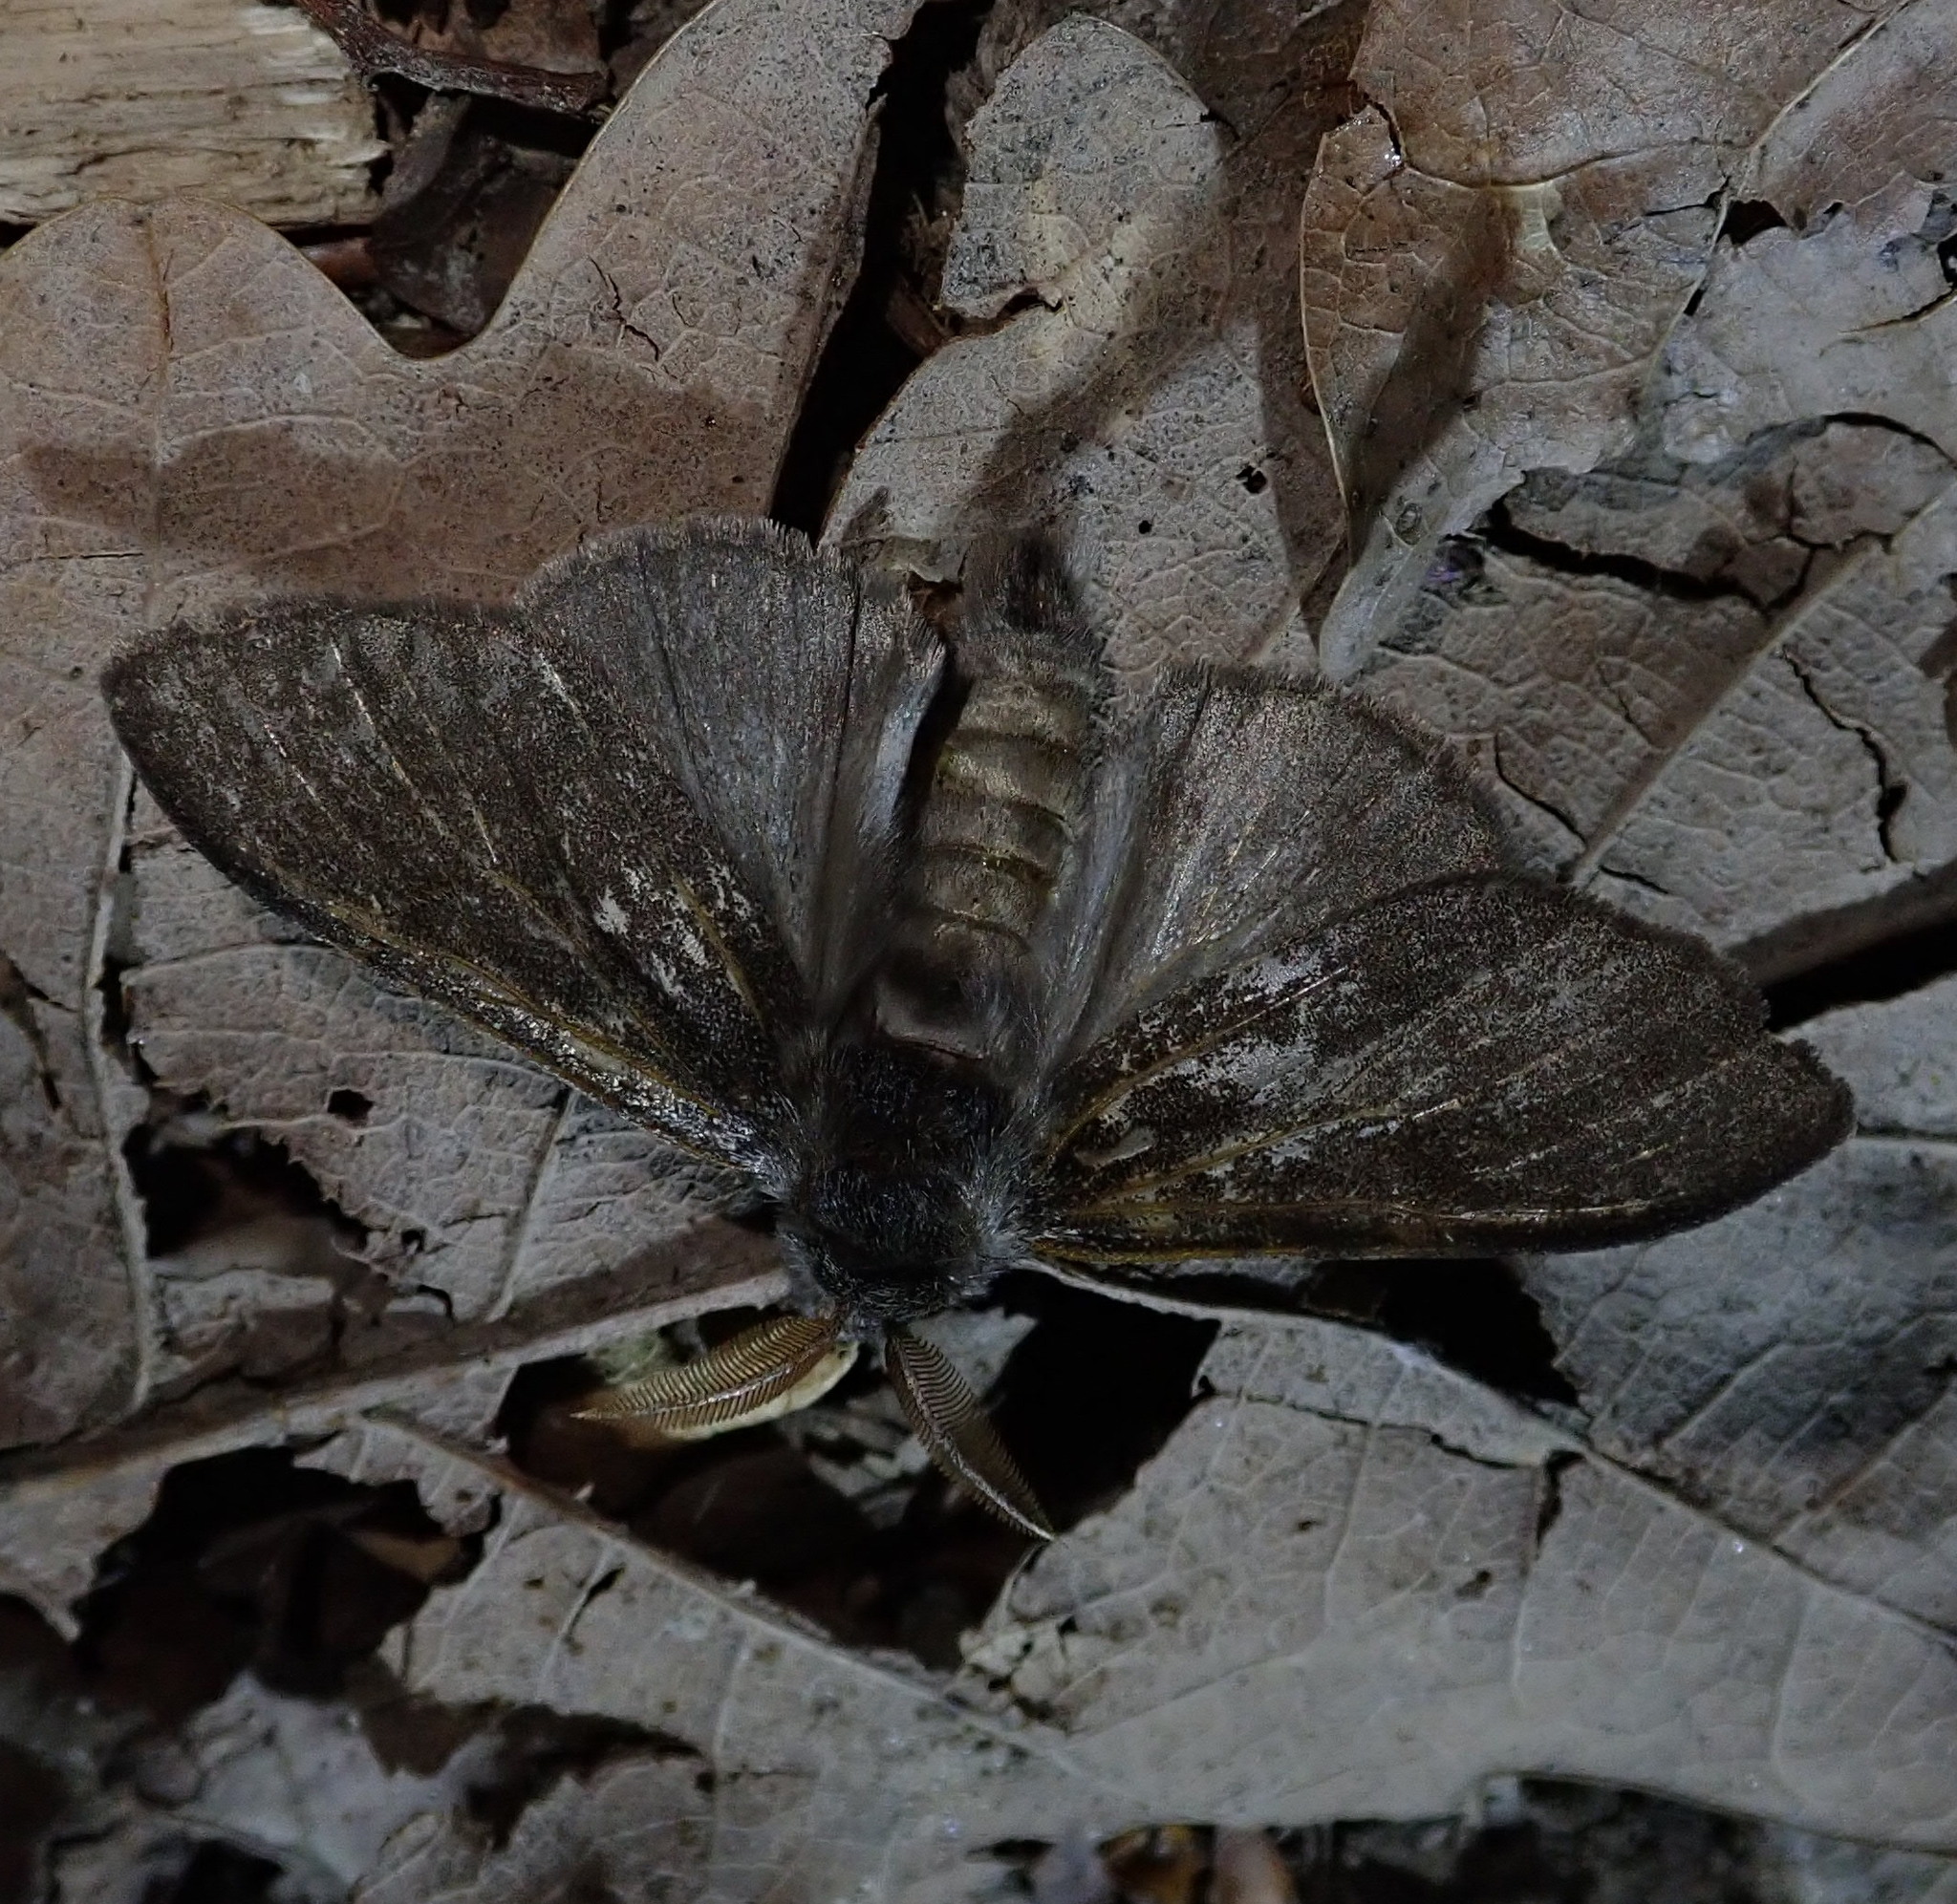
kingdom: Animalia
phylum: Arthropoda
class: Insecta
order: Lepidoptera
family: Erebidae
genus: Calliteara
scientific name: Calliteara pudibunda
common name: Pale tussock
